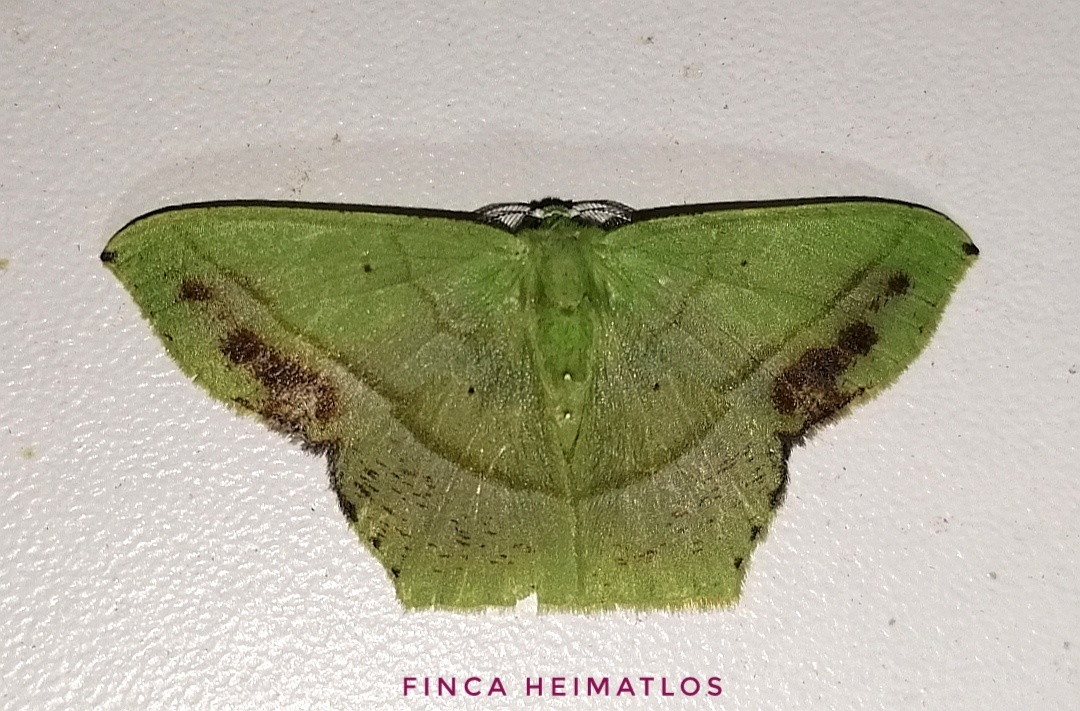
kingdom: Animalia
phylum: Arthropoda
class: Insecta
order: Lepidoptera
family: Geometridae
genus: Phrudocentra
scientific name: Phrudocentra neis
